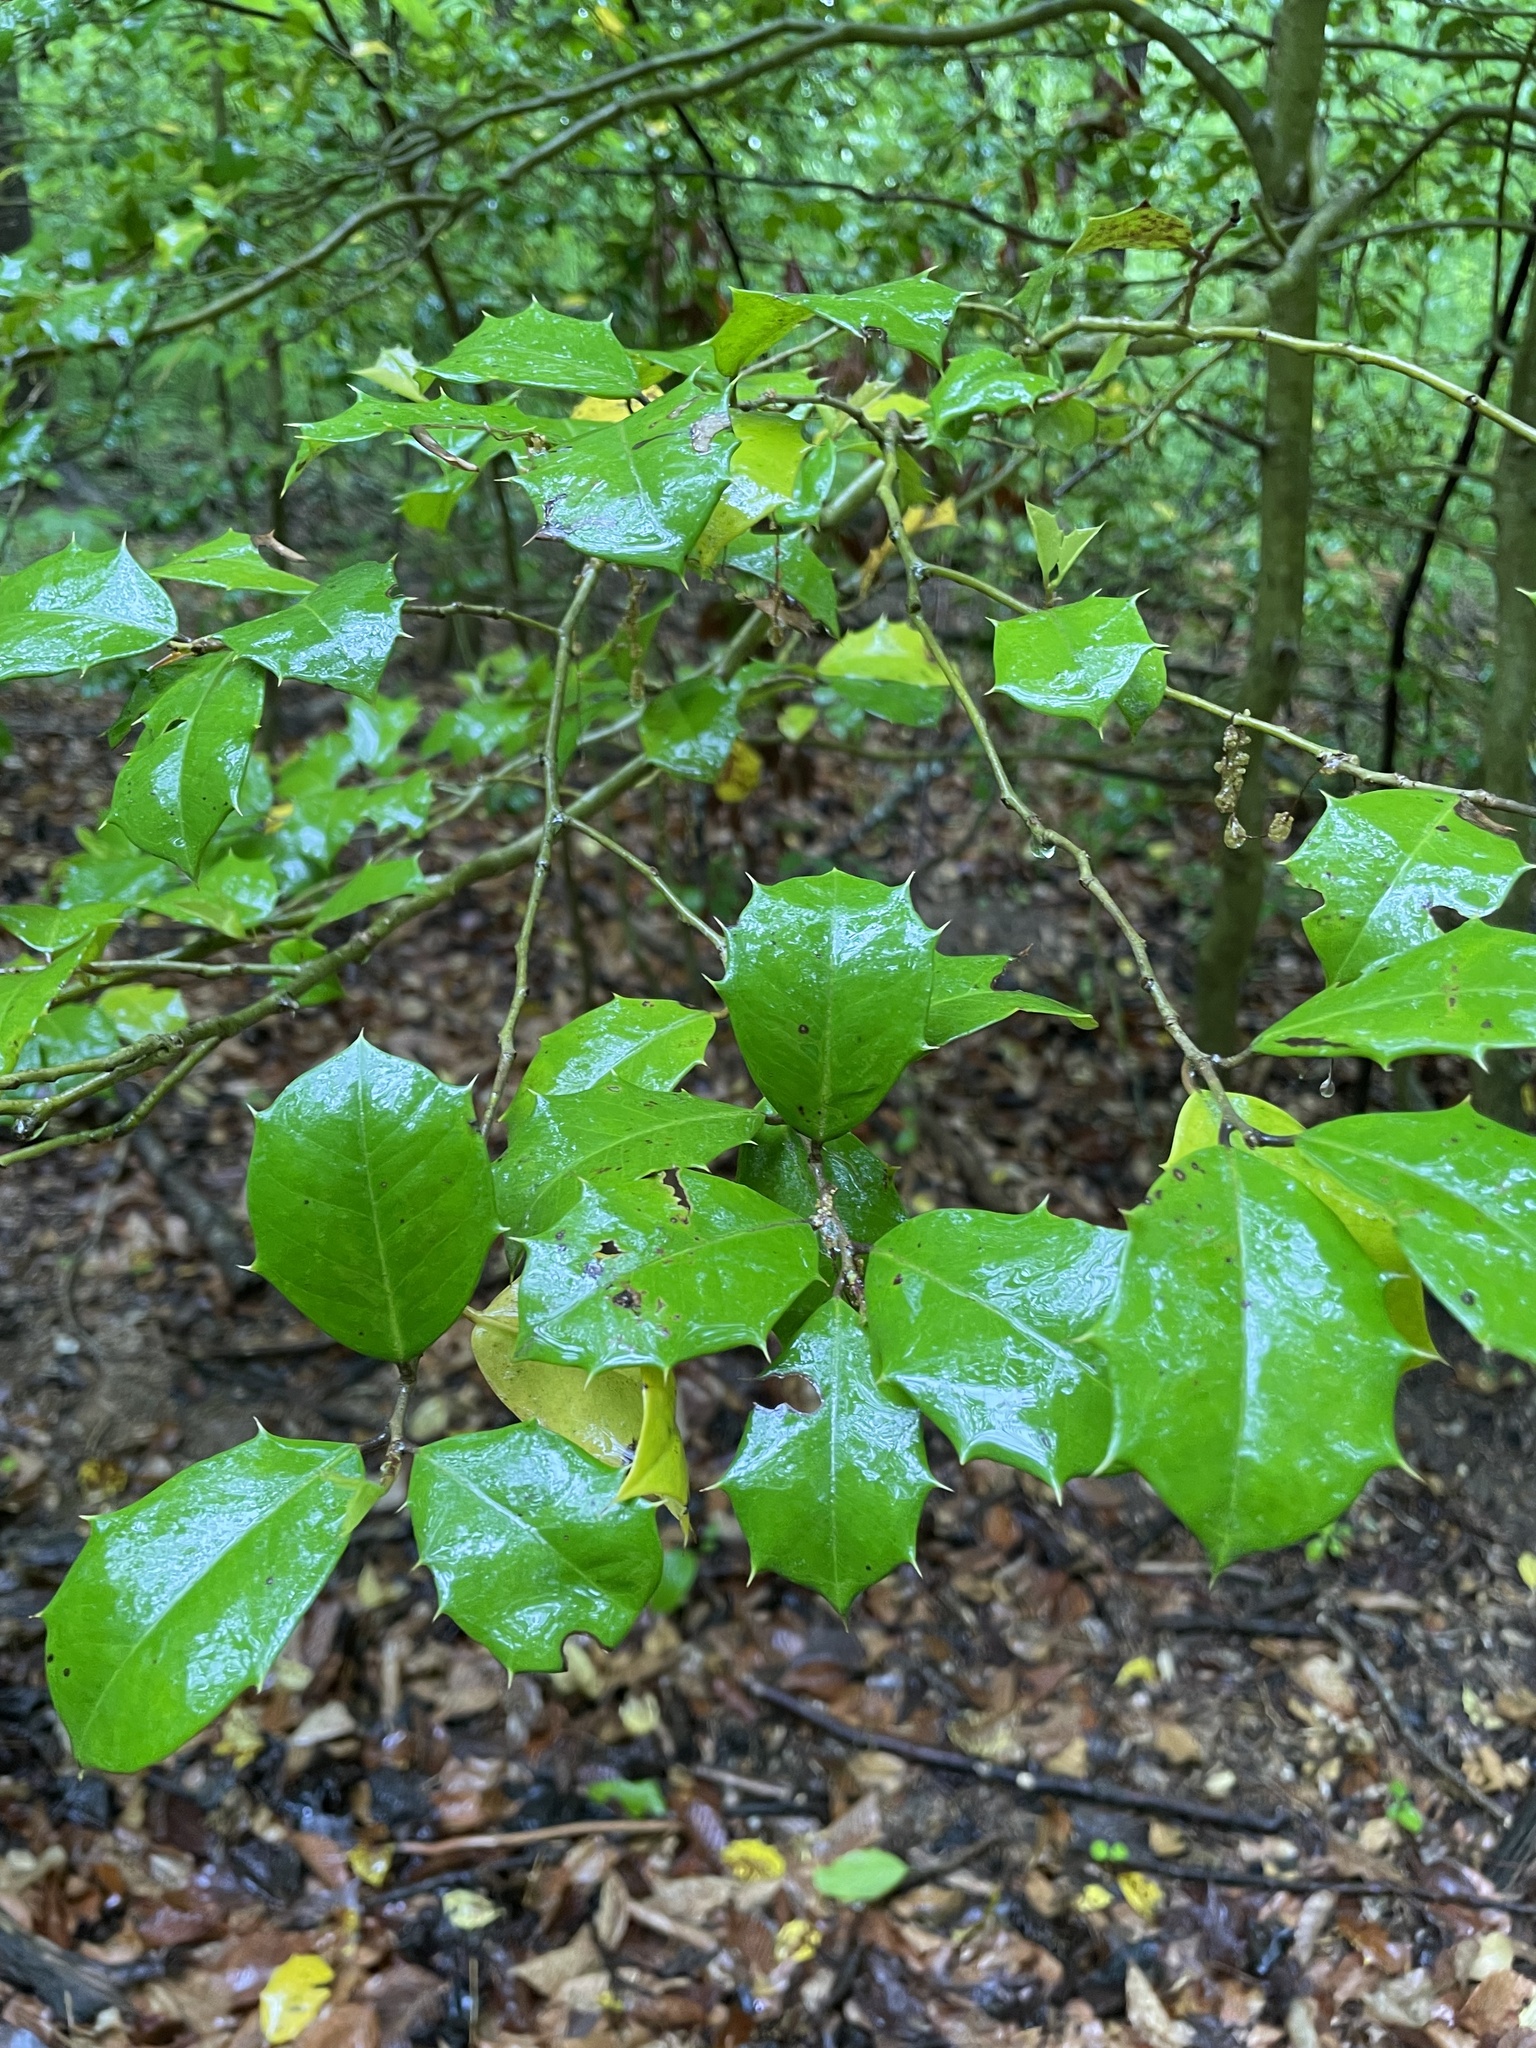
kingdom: Plantae
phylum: Tracheophyta
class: Magnoliopsida
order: Aquifoliales
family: Aquifoliaceae
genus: Ilex
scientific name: Ilex opaca
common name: American holly
